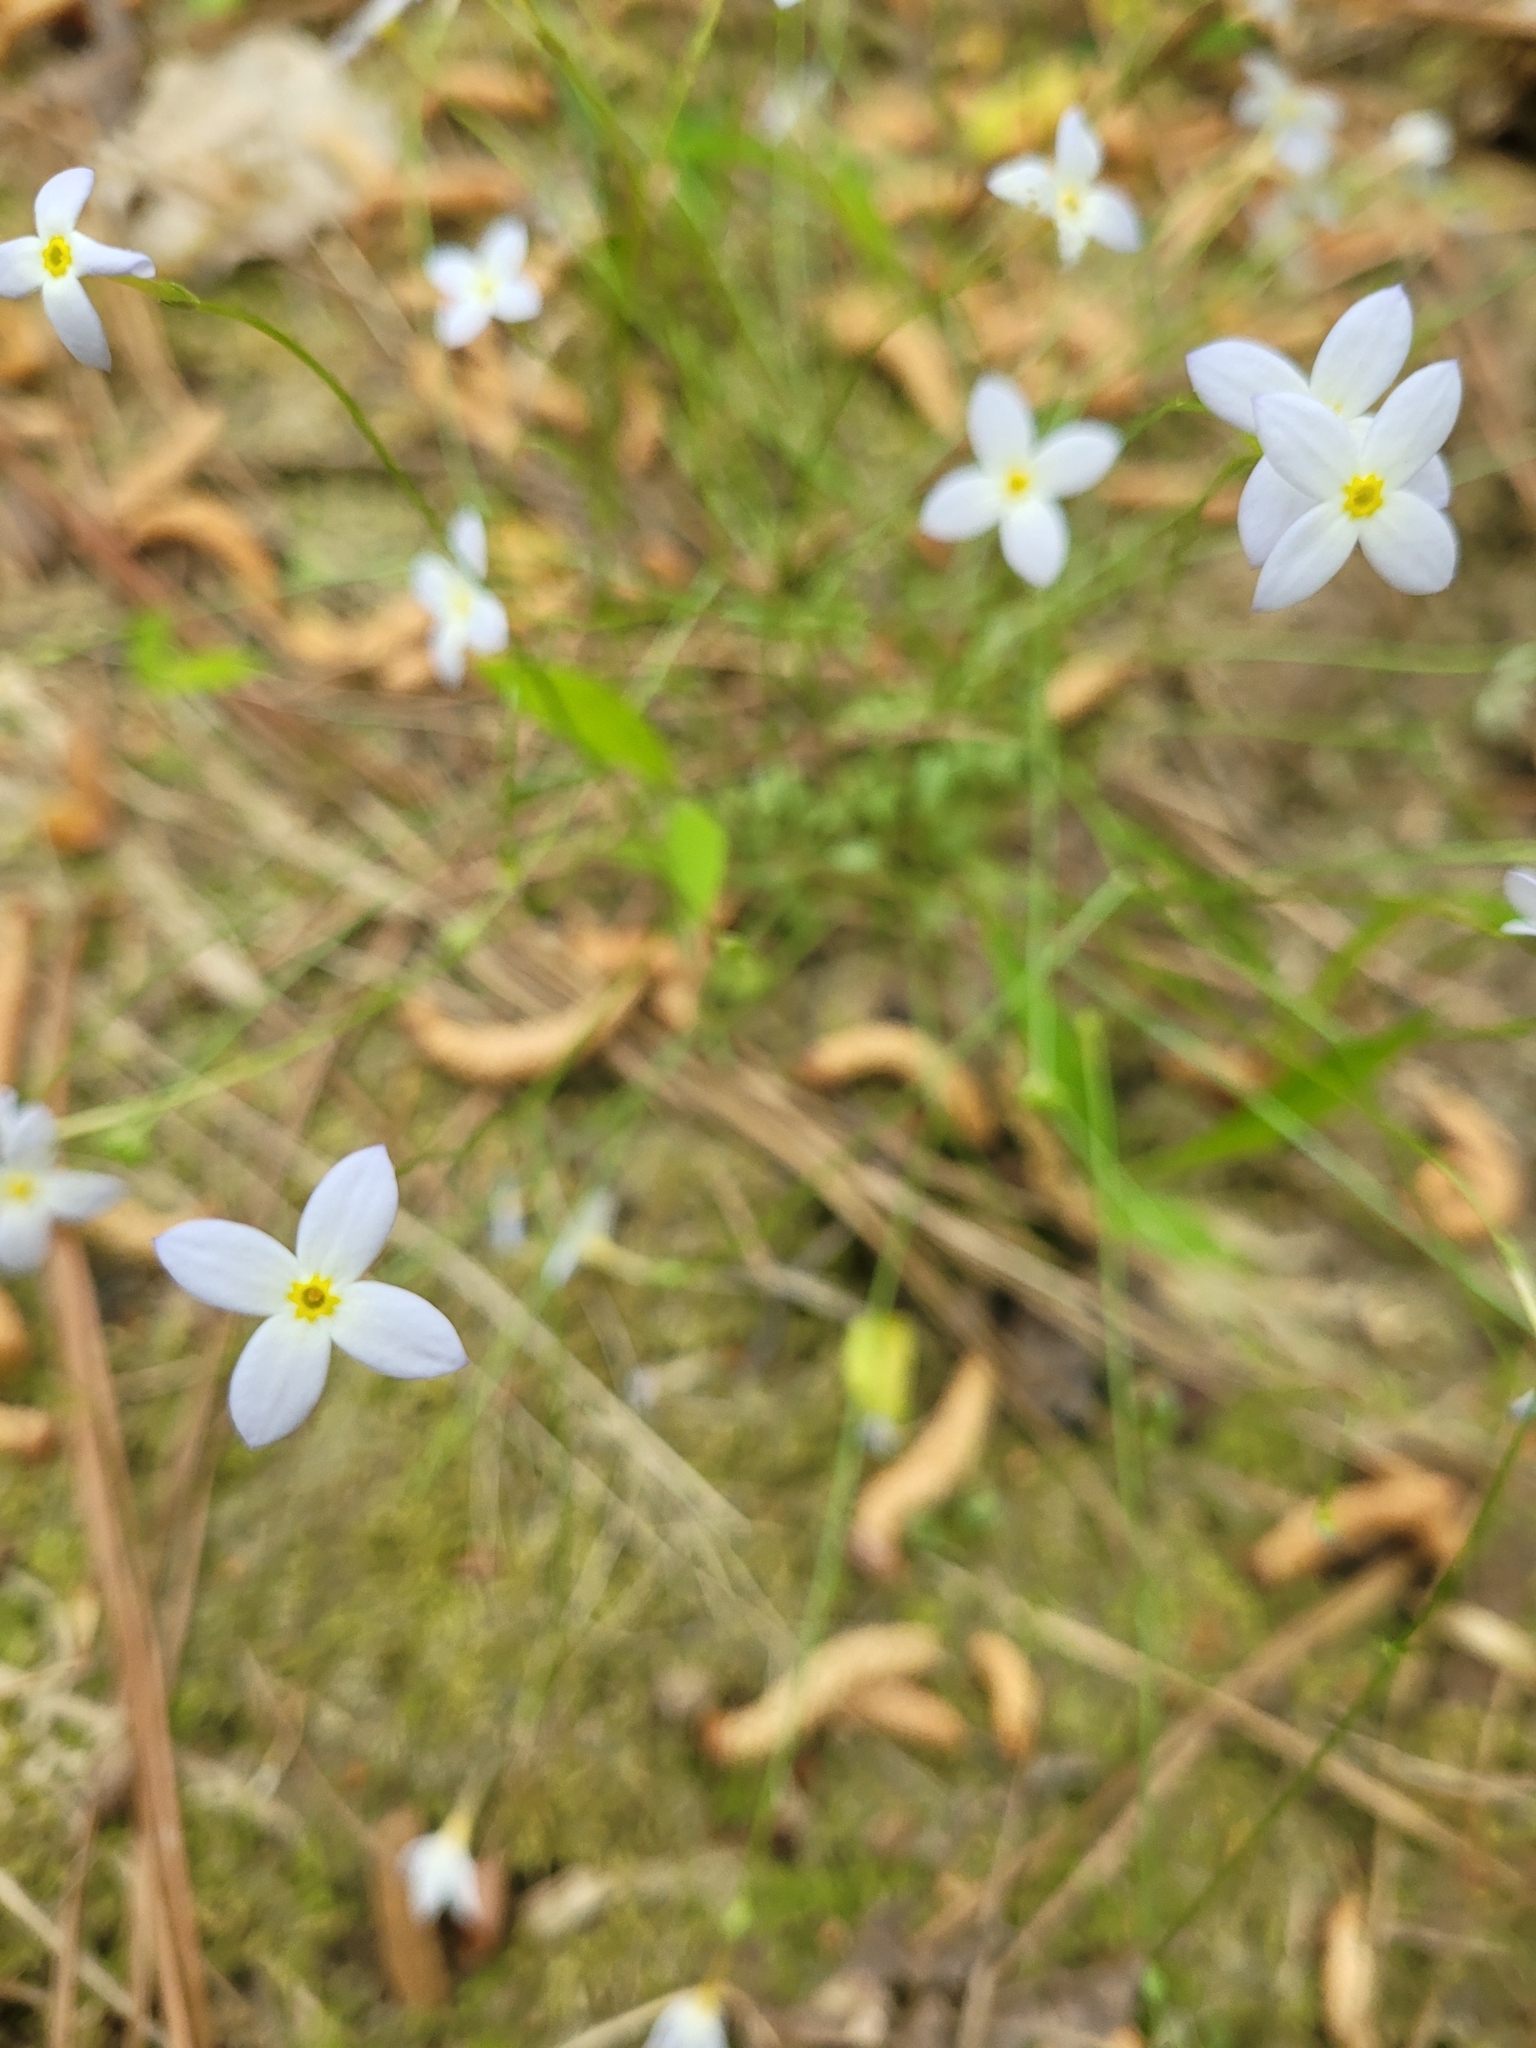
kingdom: Plantae
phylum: Tracheophyta
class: Magnoliopsida
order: Gentianales
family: Rubiaceae
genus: Houstonia
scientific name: Houstonia caerulea
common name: Bluets
